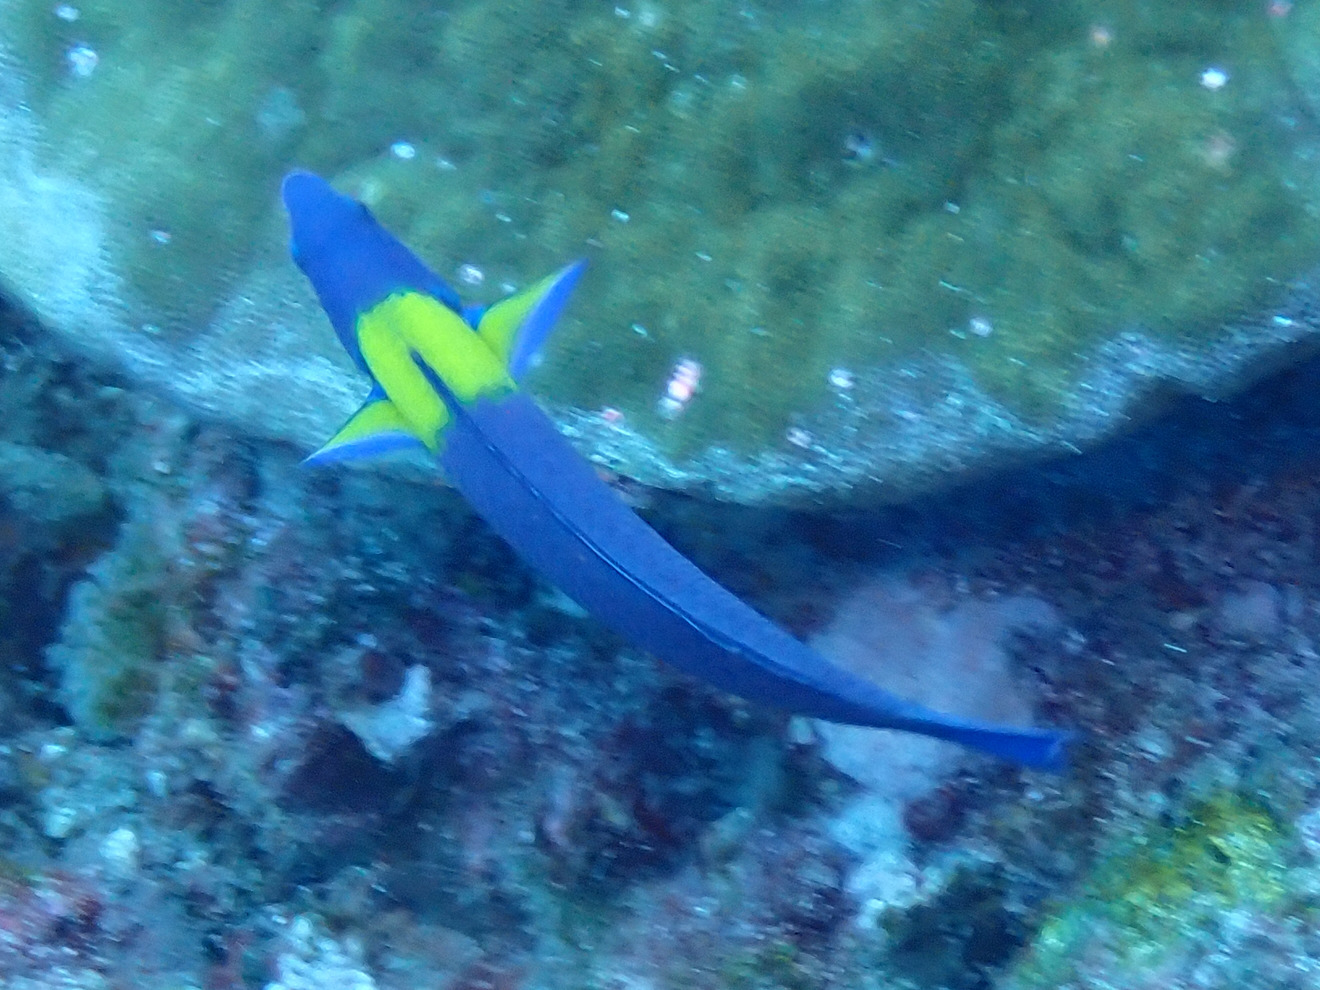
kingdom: Animalia
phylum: Chordata
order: Perciformes
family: Labridae
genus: Thalassoma
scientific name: Thalassoma lucasanum
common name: Cortez rainbow wrasse
